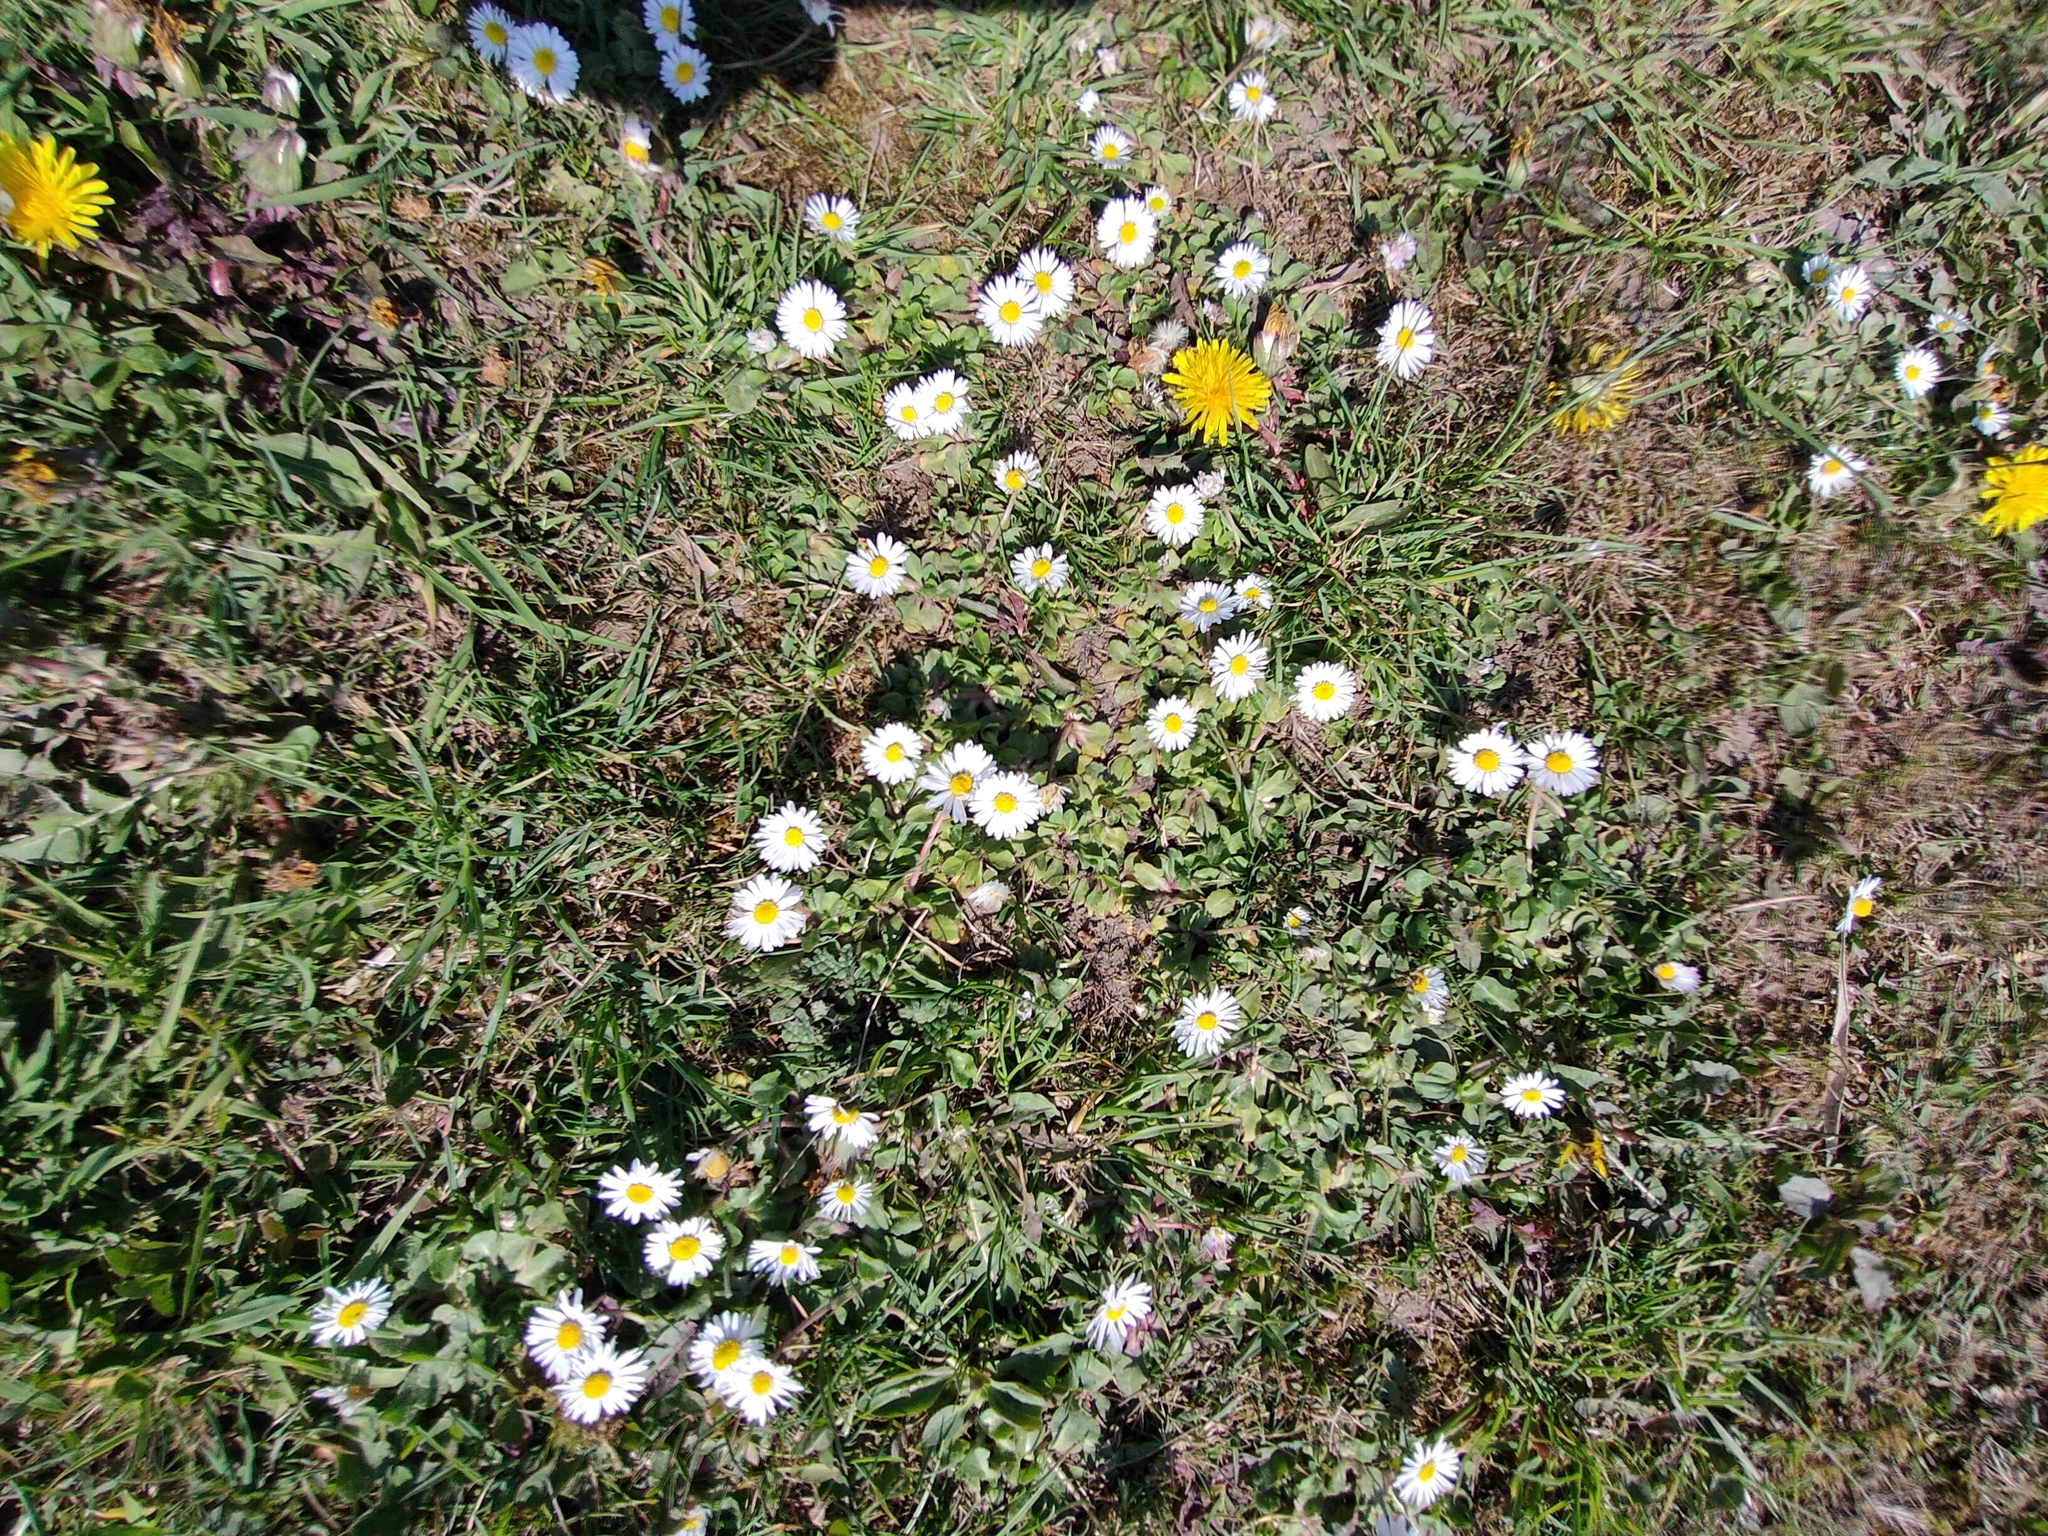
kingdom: Plantae
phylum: Tracheophyta
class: Magnoliopsida
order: Asterales
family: Asteraceae
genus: Bellis
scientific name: Bellis perennis
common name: Lawndaisy
